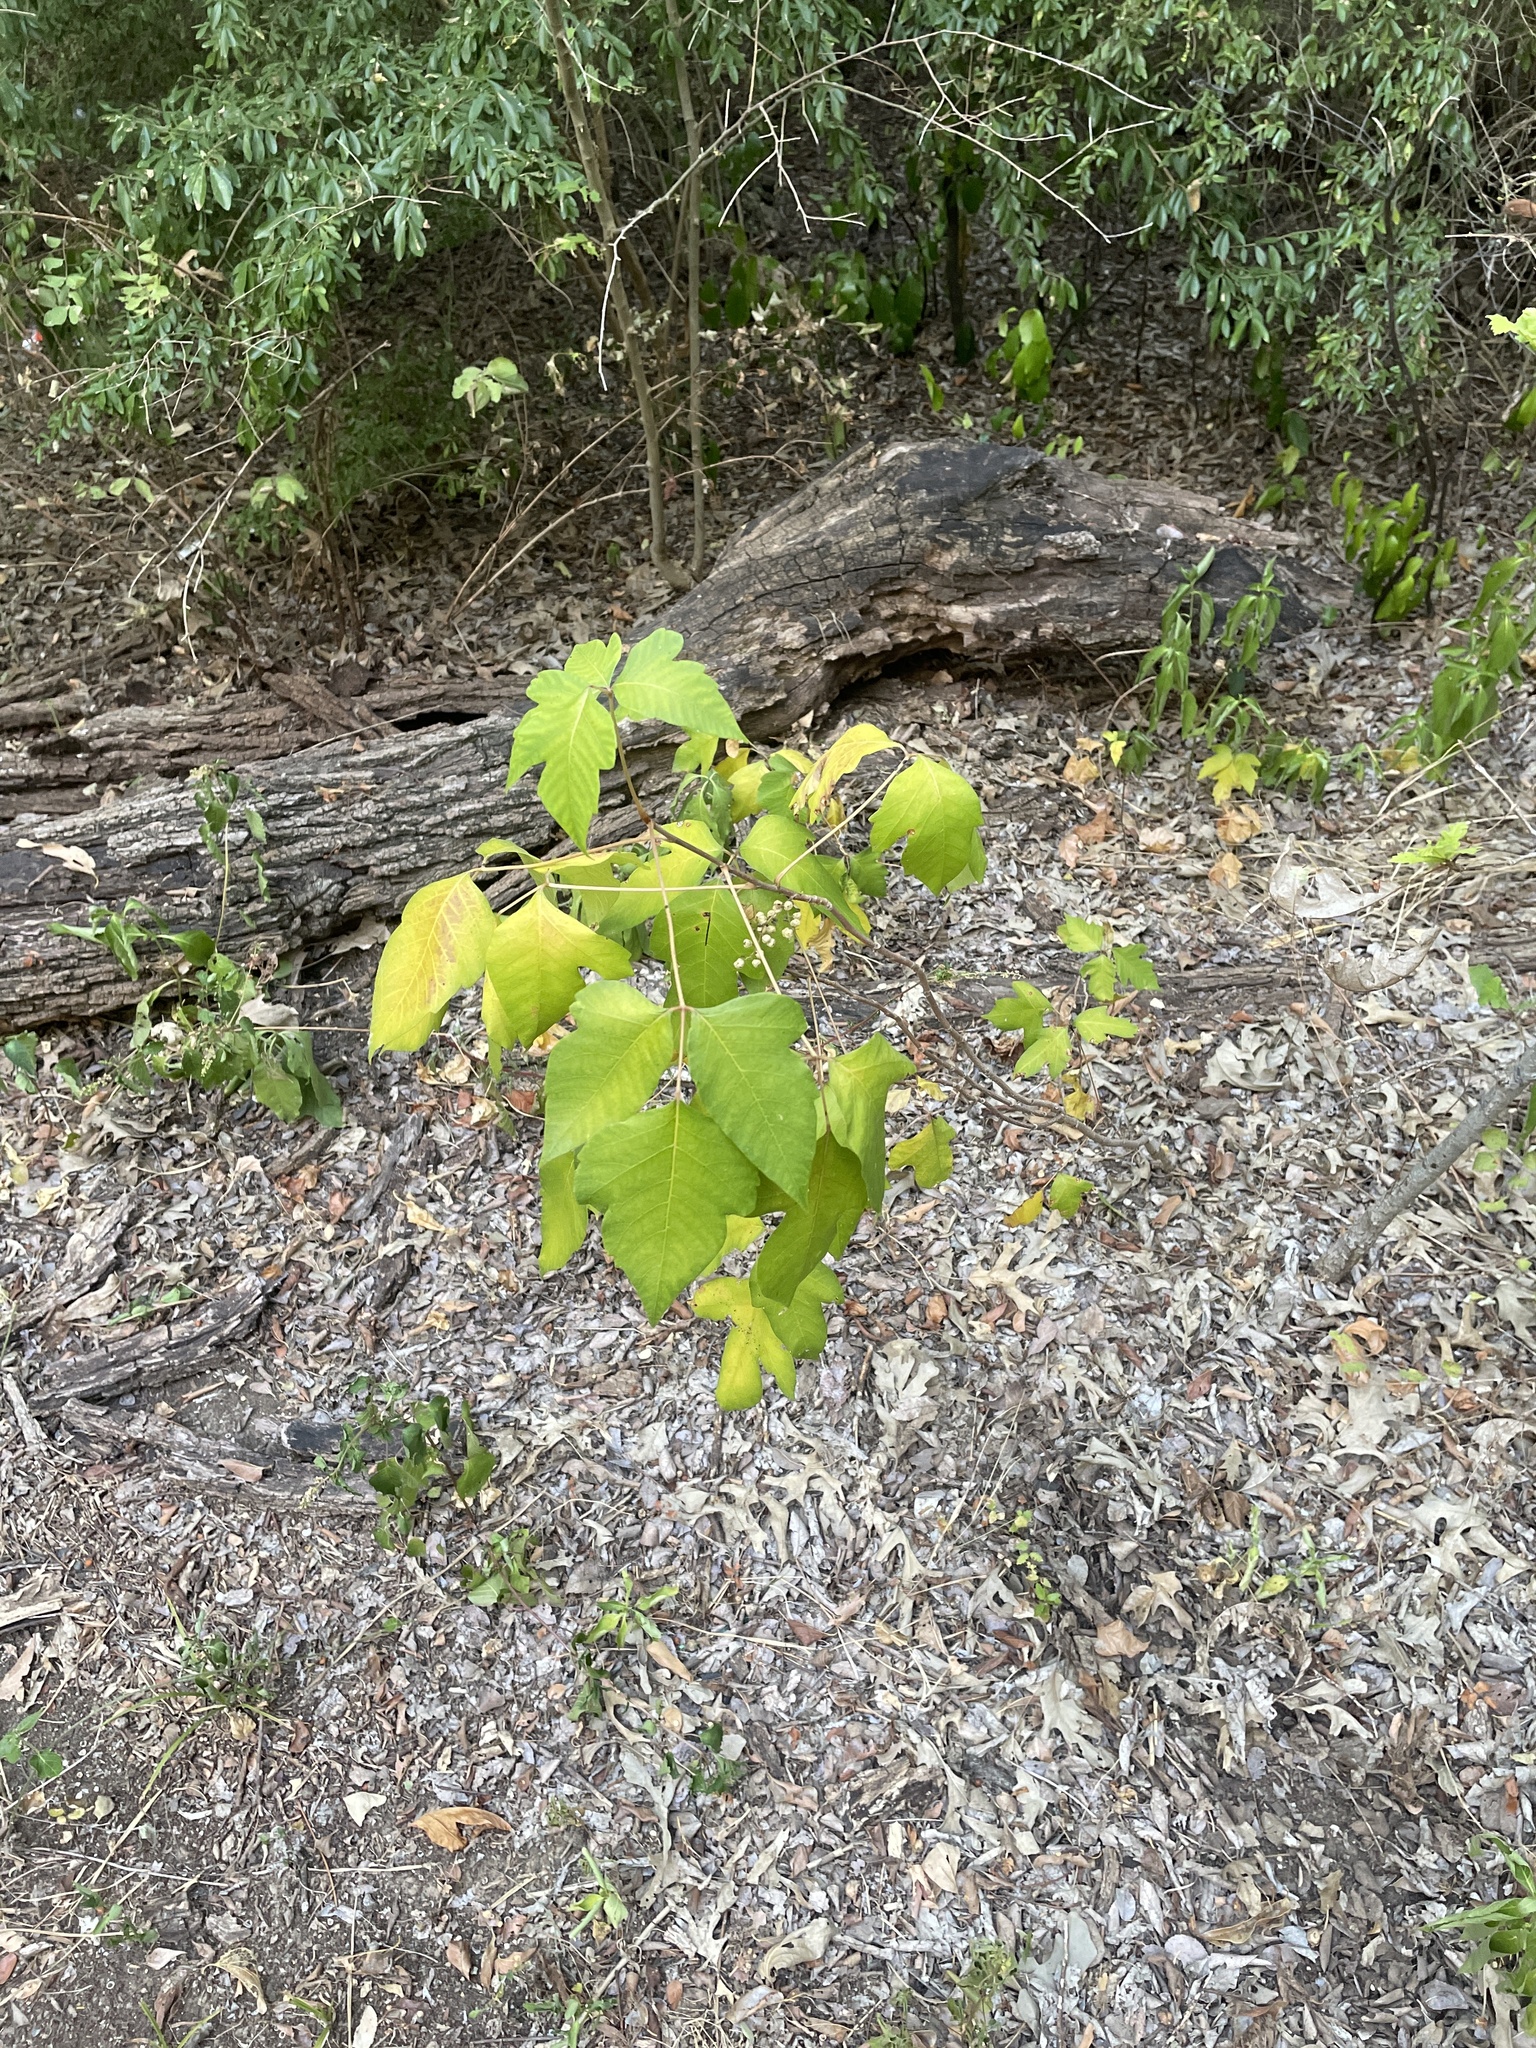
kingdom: Plantae
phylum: Tracheophyta
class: Magnoliopsida
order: Sapindales
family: Anacardiaceae
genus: Toxicodendron
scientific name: Toxicodendron radicans
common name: Poison ivy
